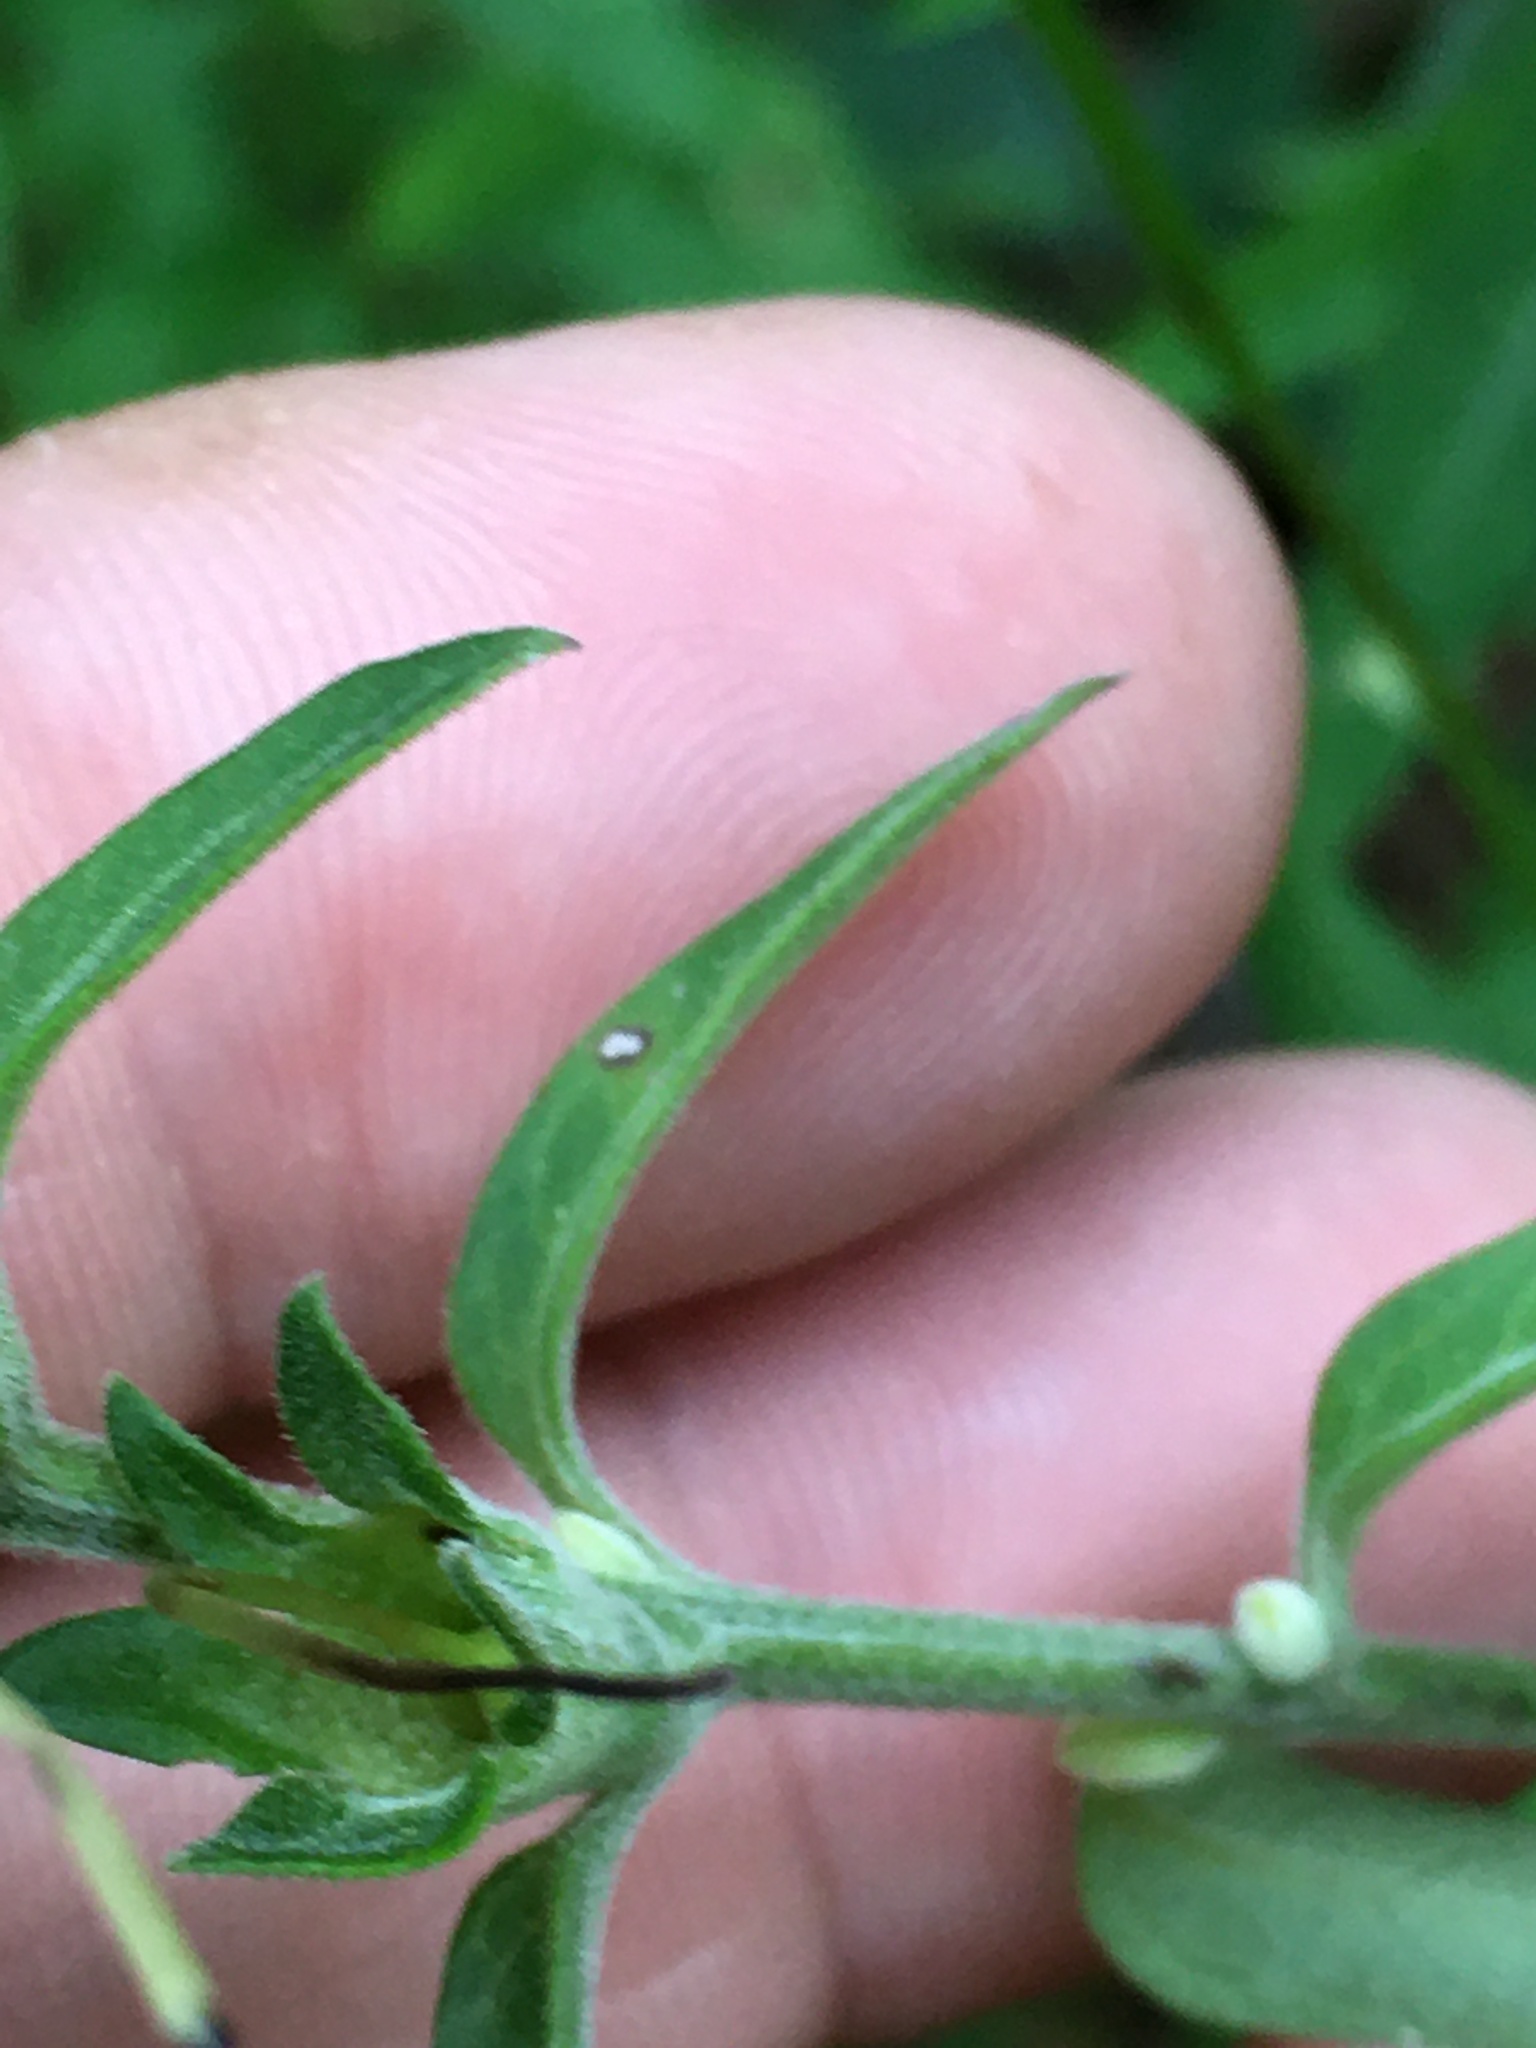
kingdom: Plantae
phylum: Tracheophyta
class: Magnoliopsida
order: Lamiales
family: Orobanchaceae
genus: Aureolaria
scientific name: Aureolaria virginica
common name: Downy false foxglove
